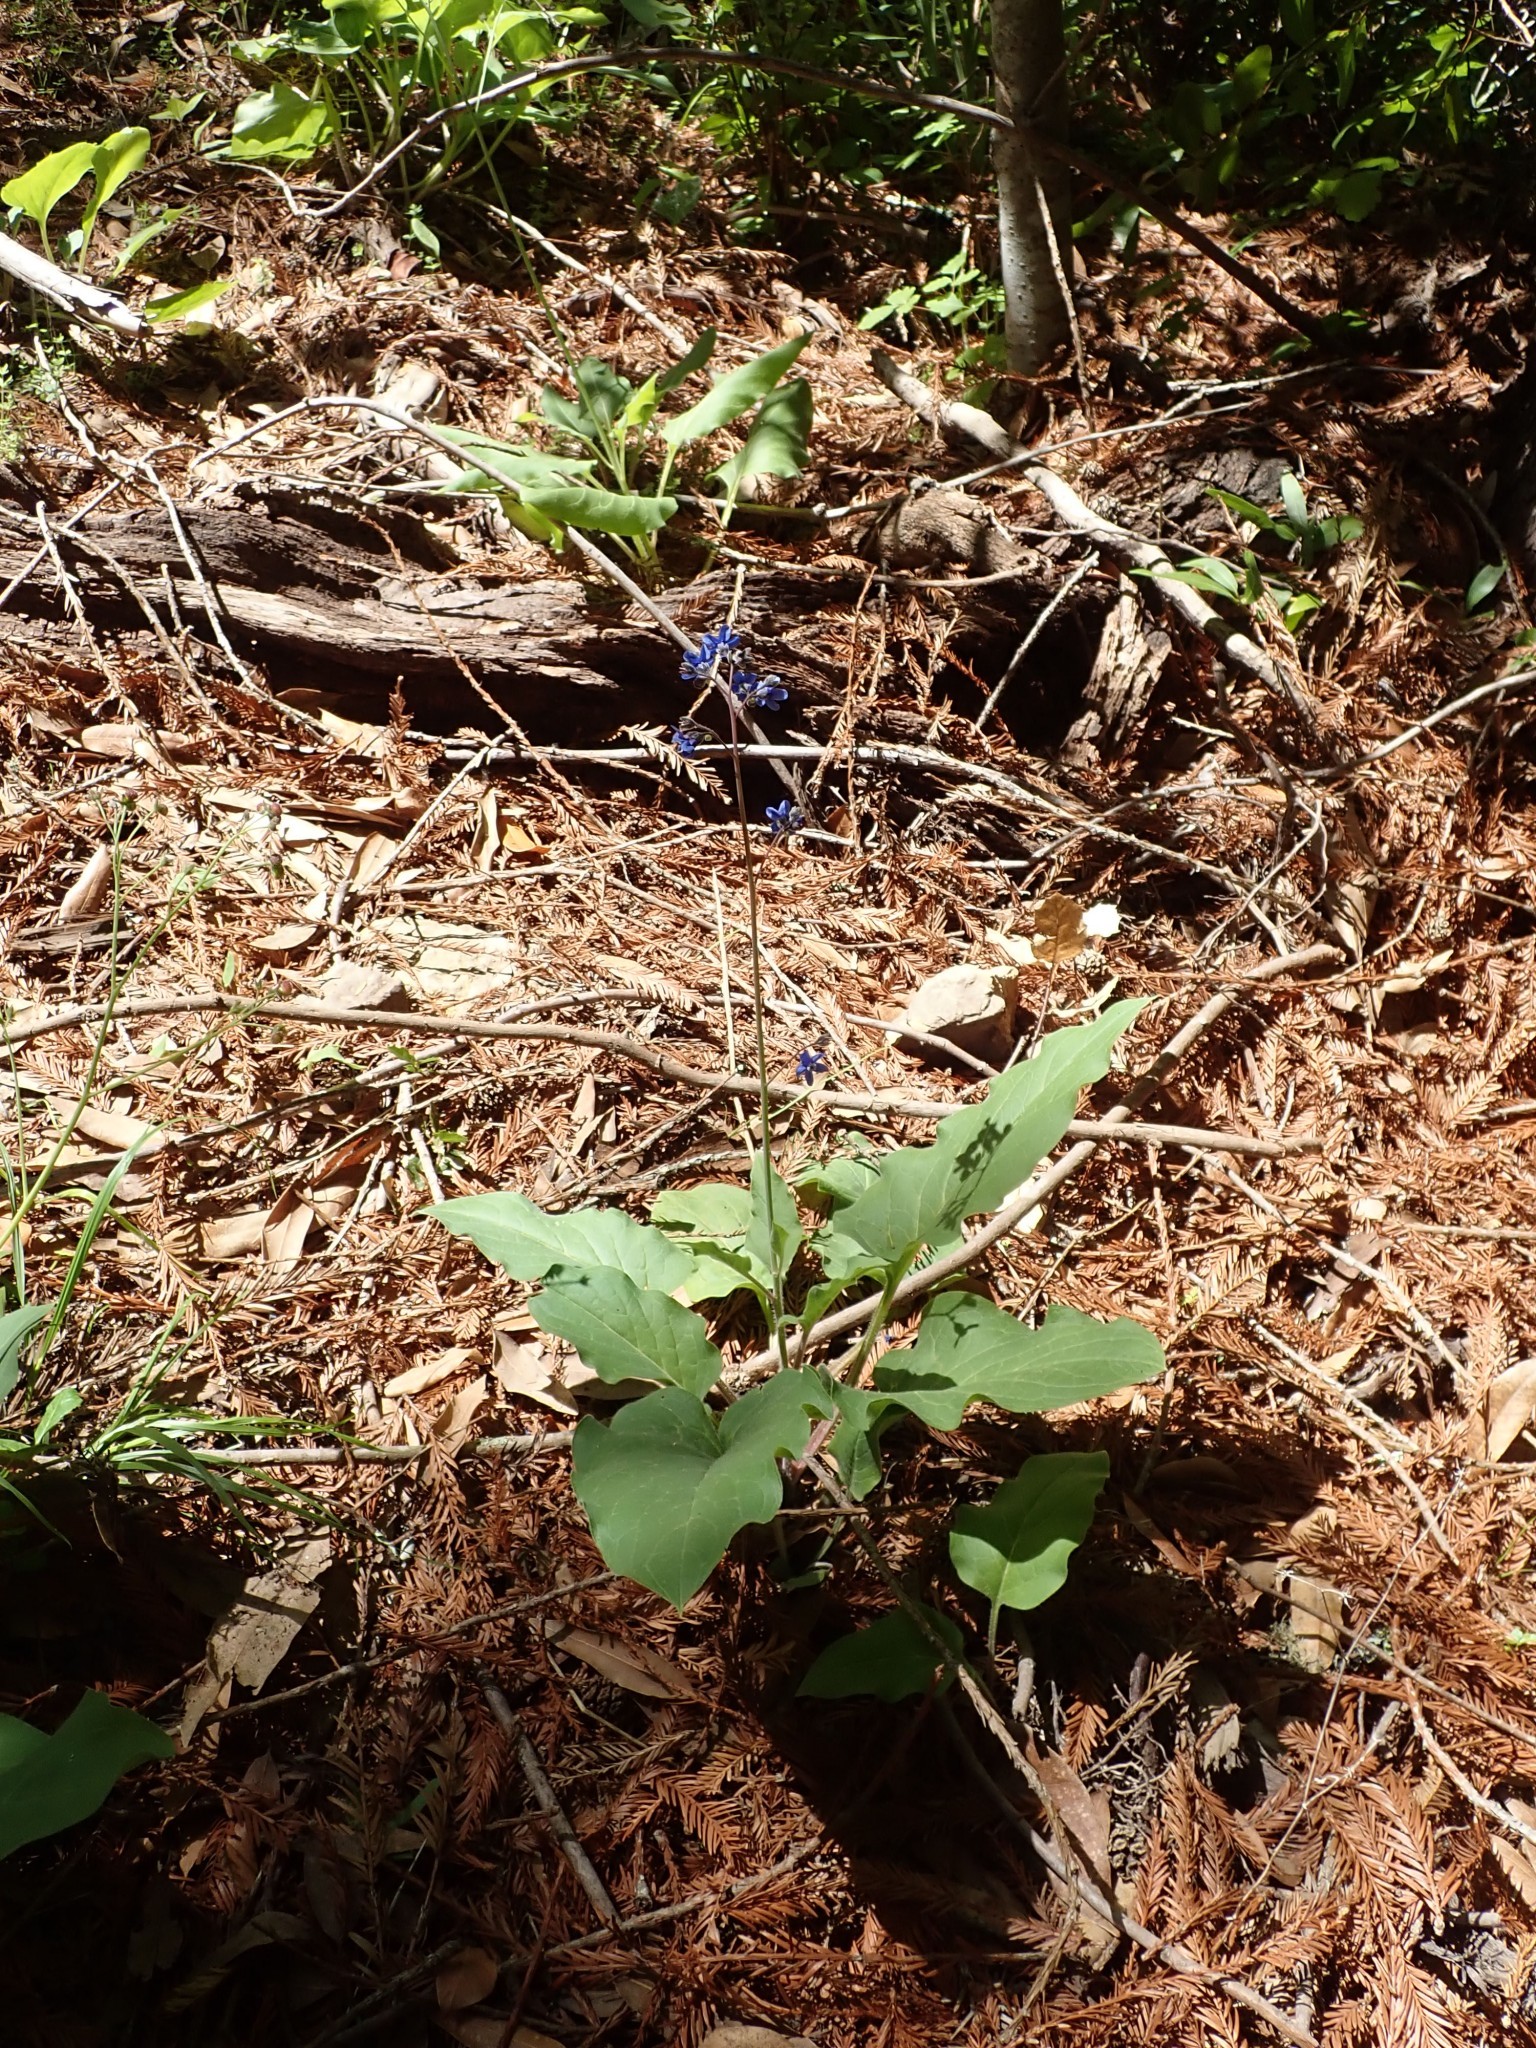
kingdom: Plantae
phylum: Tracheophyta
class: Magnoliopsida
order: Boraginales
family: Boraginaceae
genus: Adelinia
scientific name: Adelinia grande
